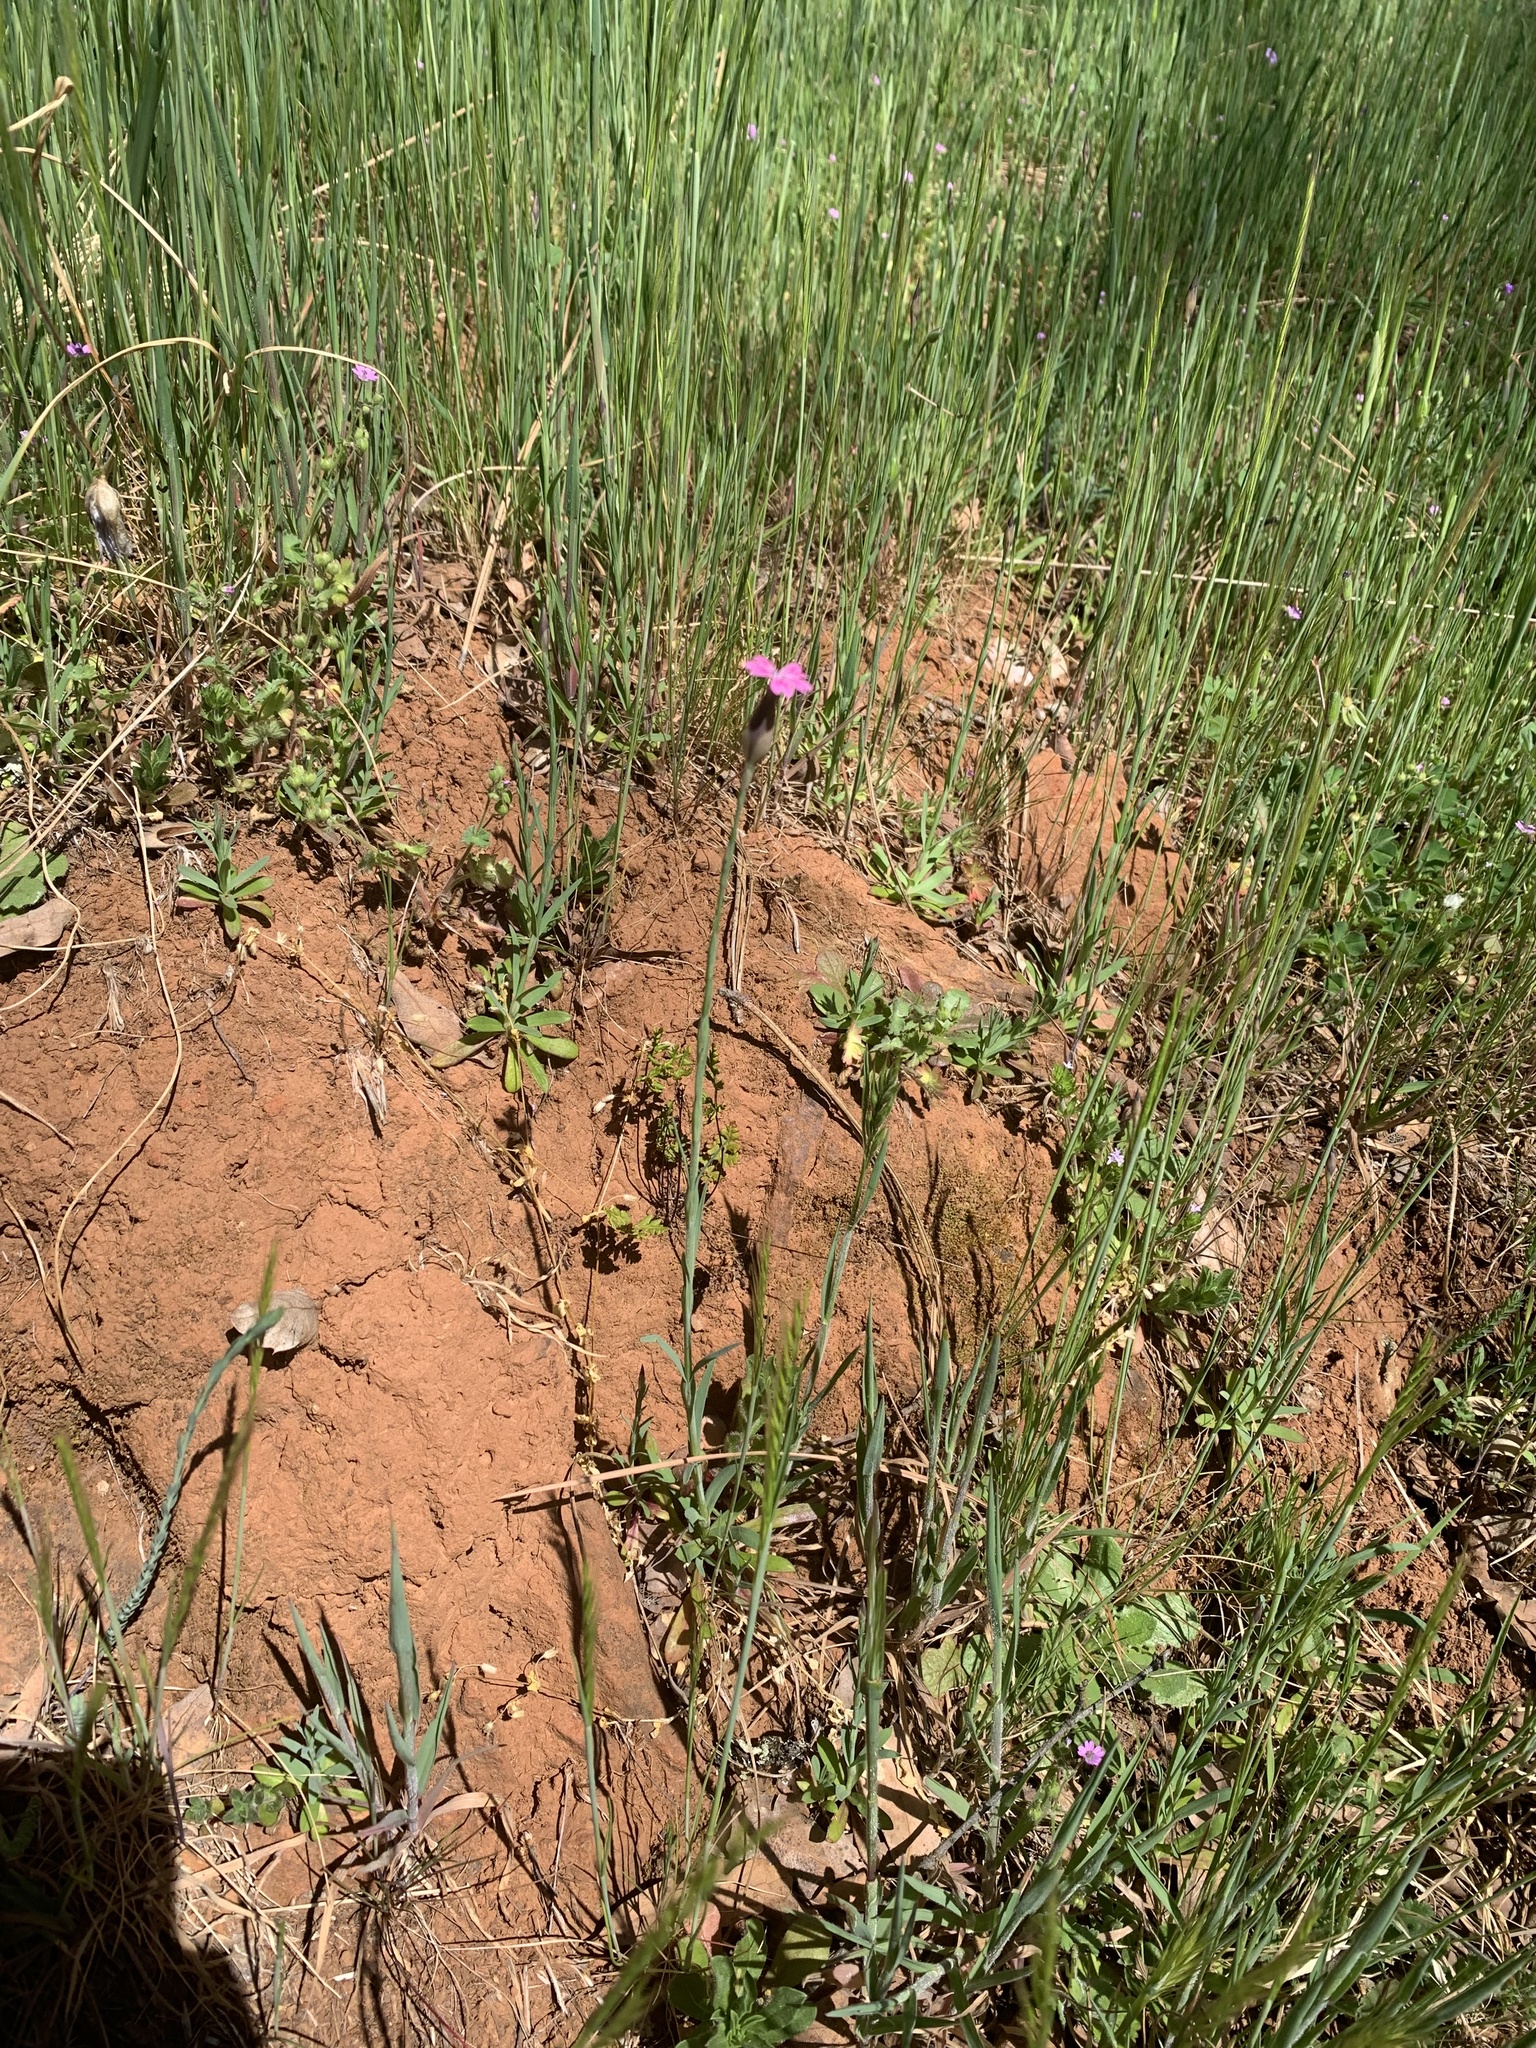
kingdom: Plantae
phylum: Tracheophyta
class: Magnoliopsida
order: Caryophyllales
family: Caryophyllaceae
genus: Petrorhagia
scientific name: Petrorhagia dubia
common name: Hairypink
